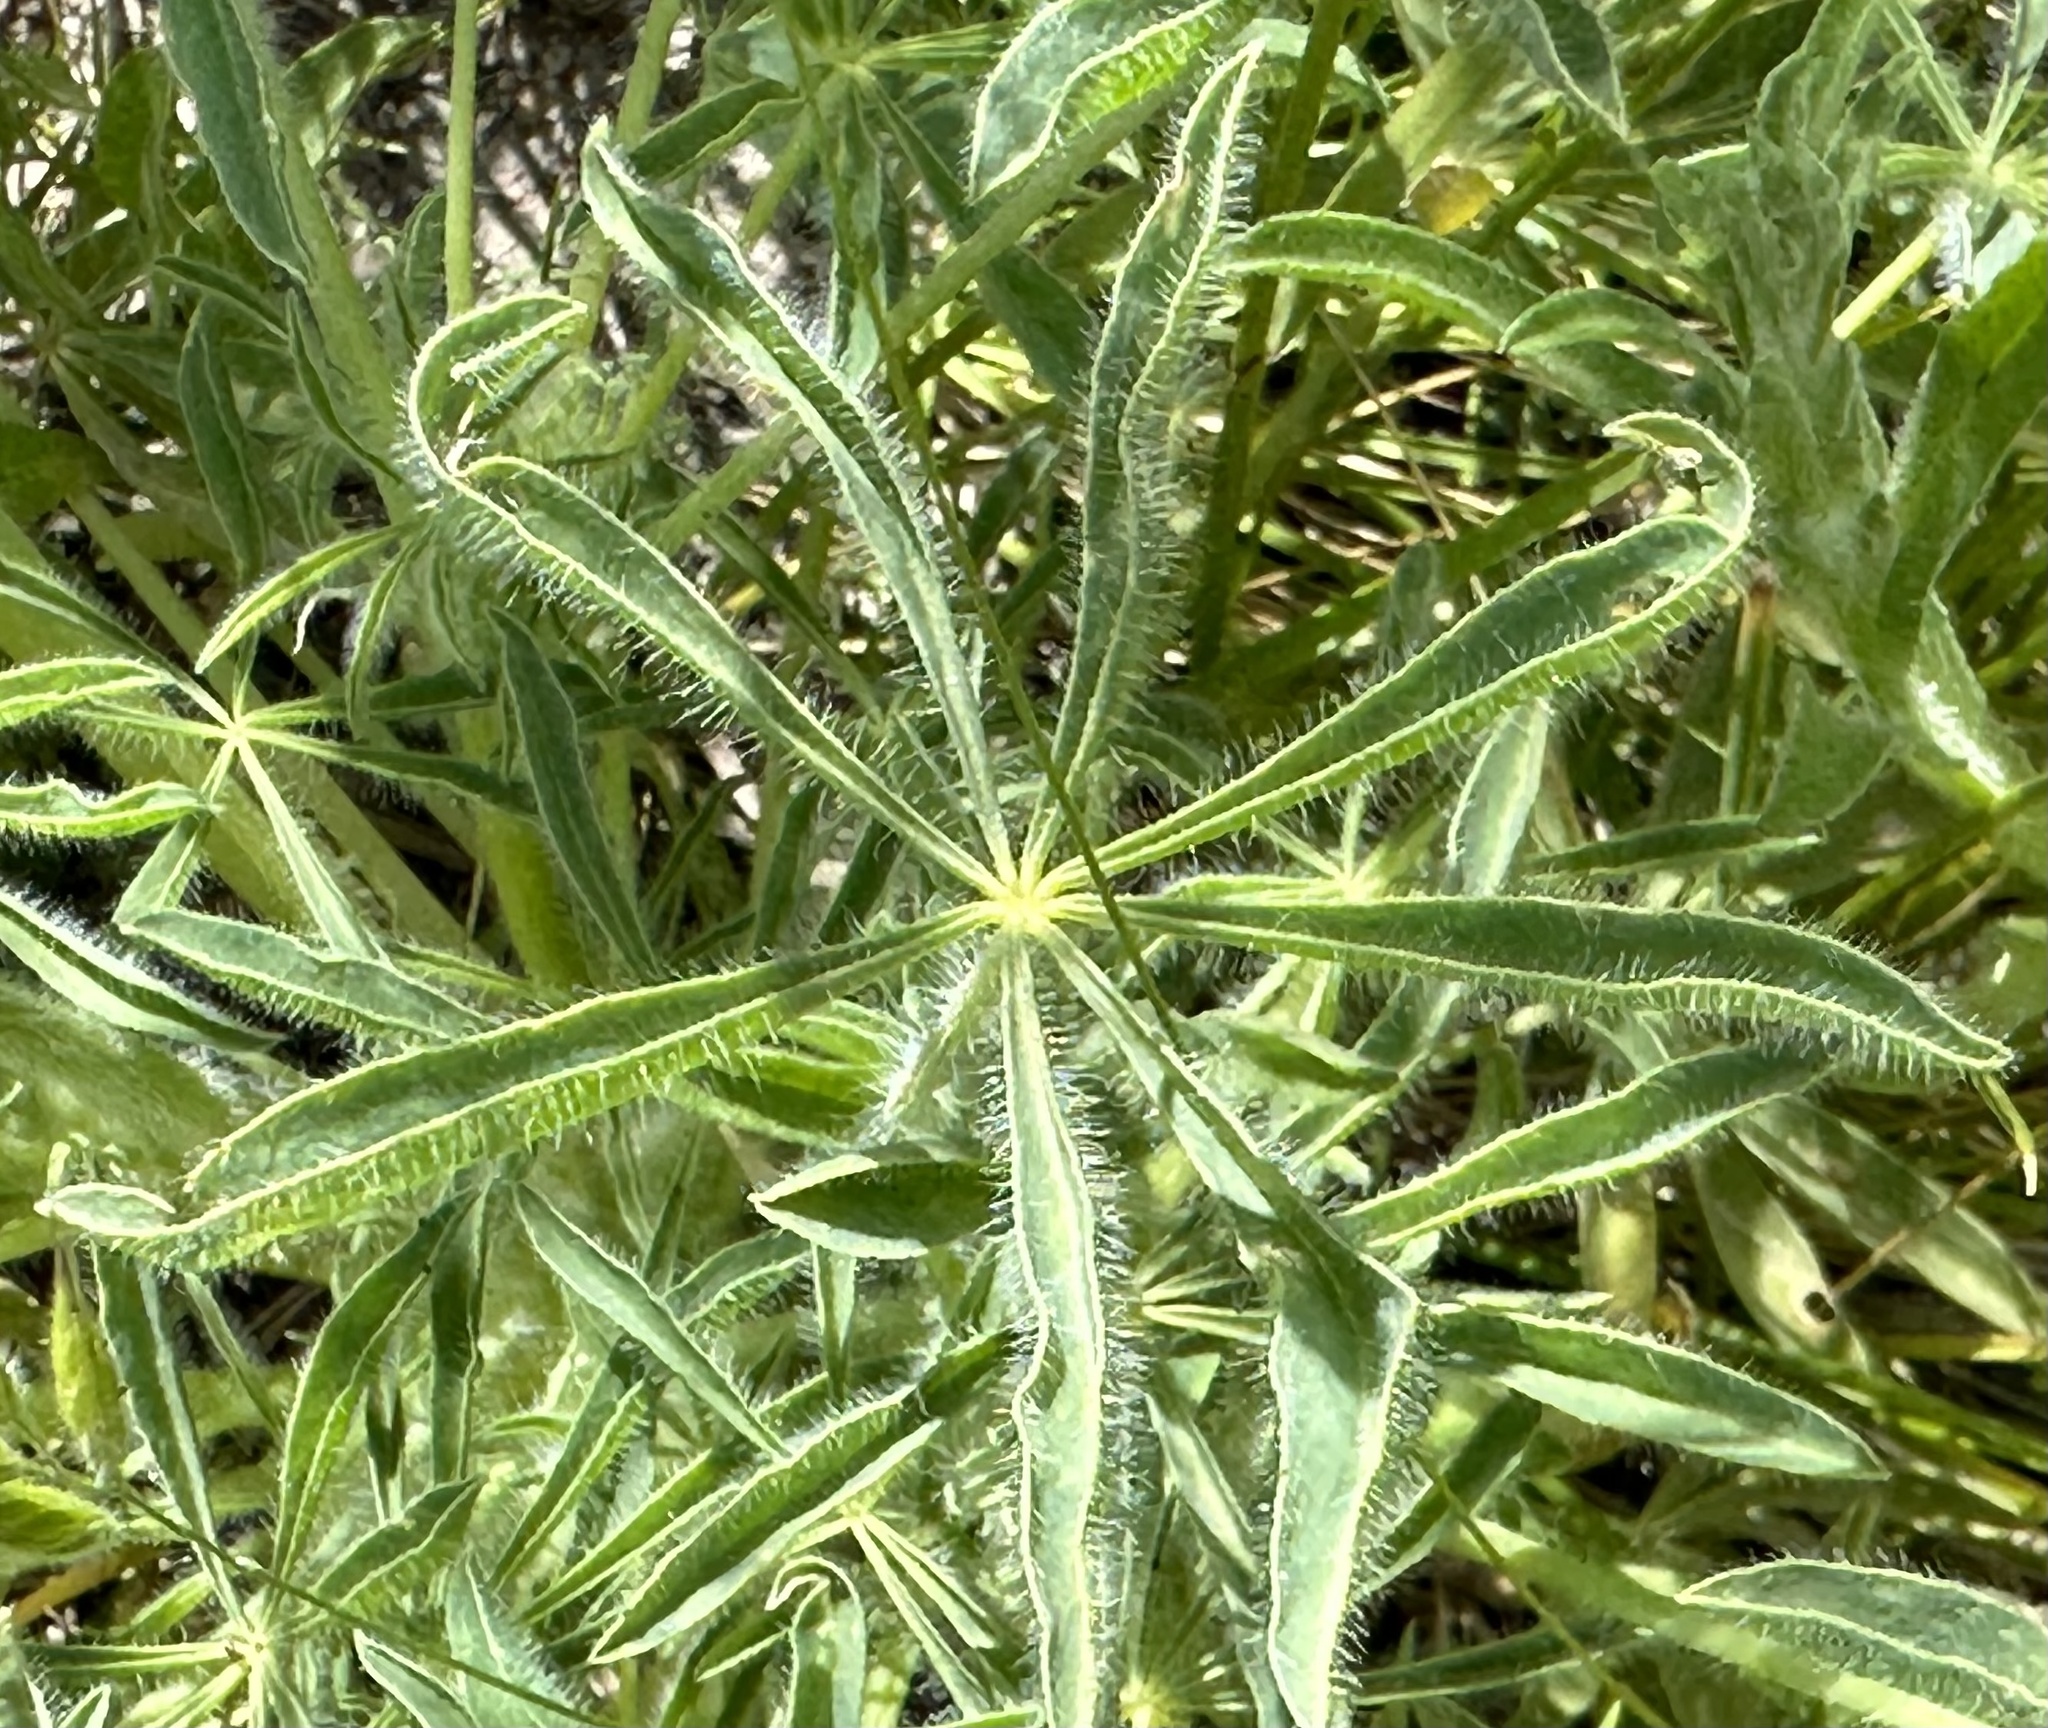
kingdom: Plantae
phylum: Tracheophyta
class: Magnoliopsida
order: Fabales
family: Fabaceae
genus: Lupinus
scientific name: Lupinus microcarpus
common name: Chick lupine
